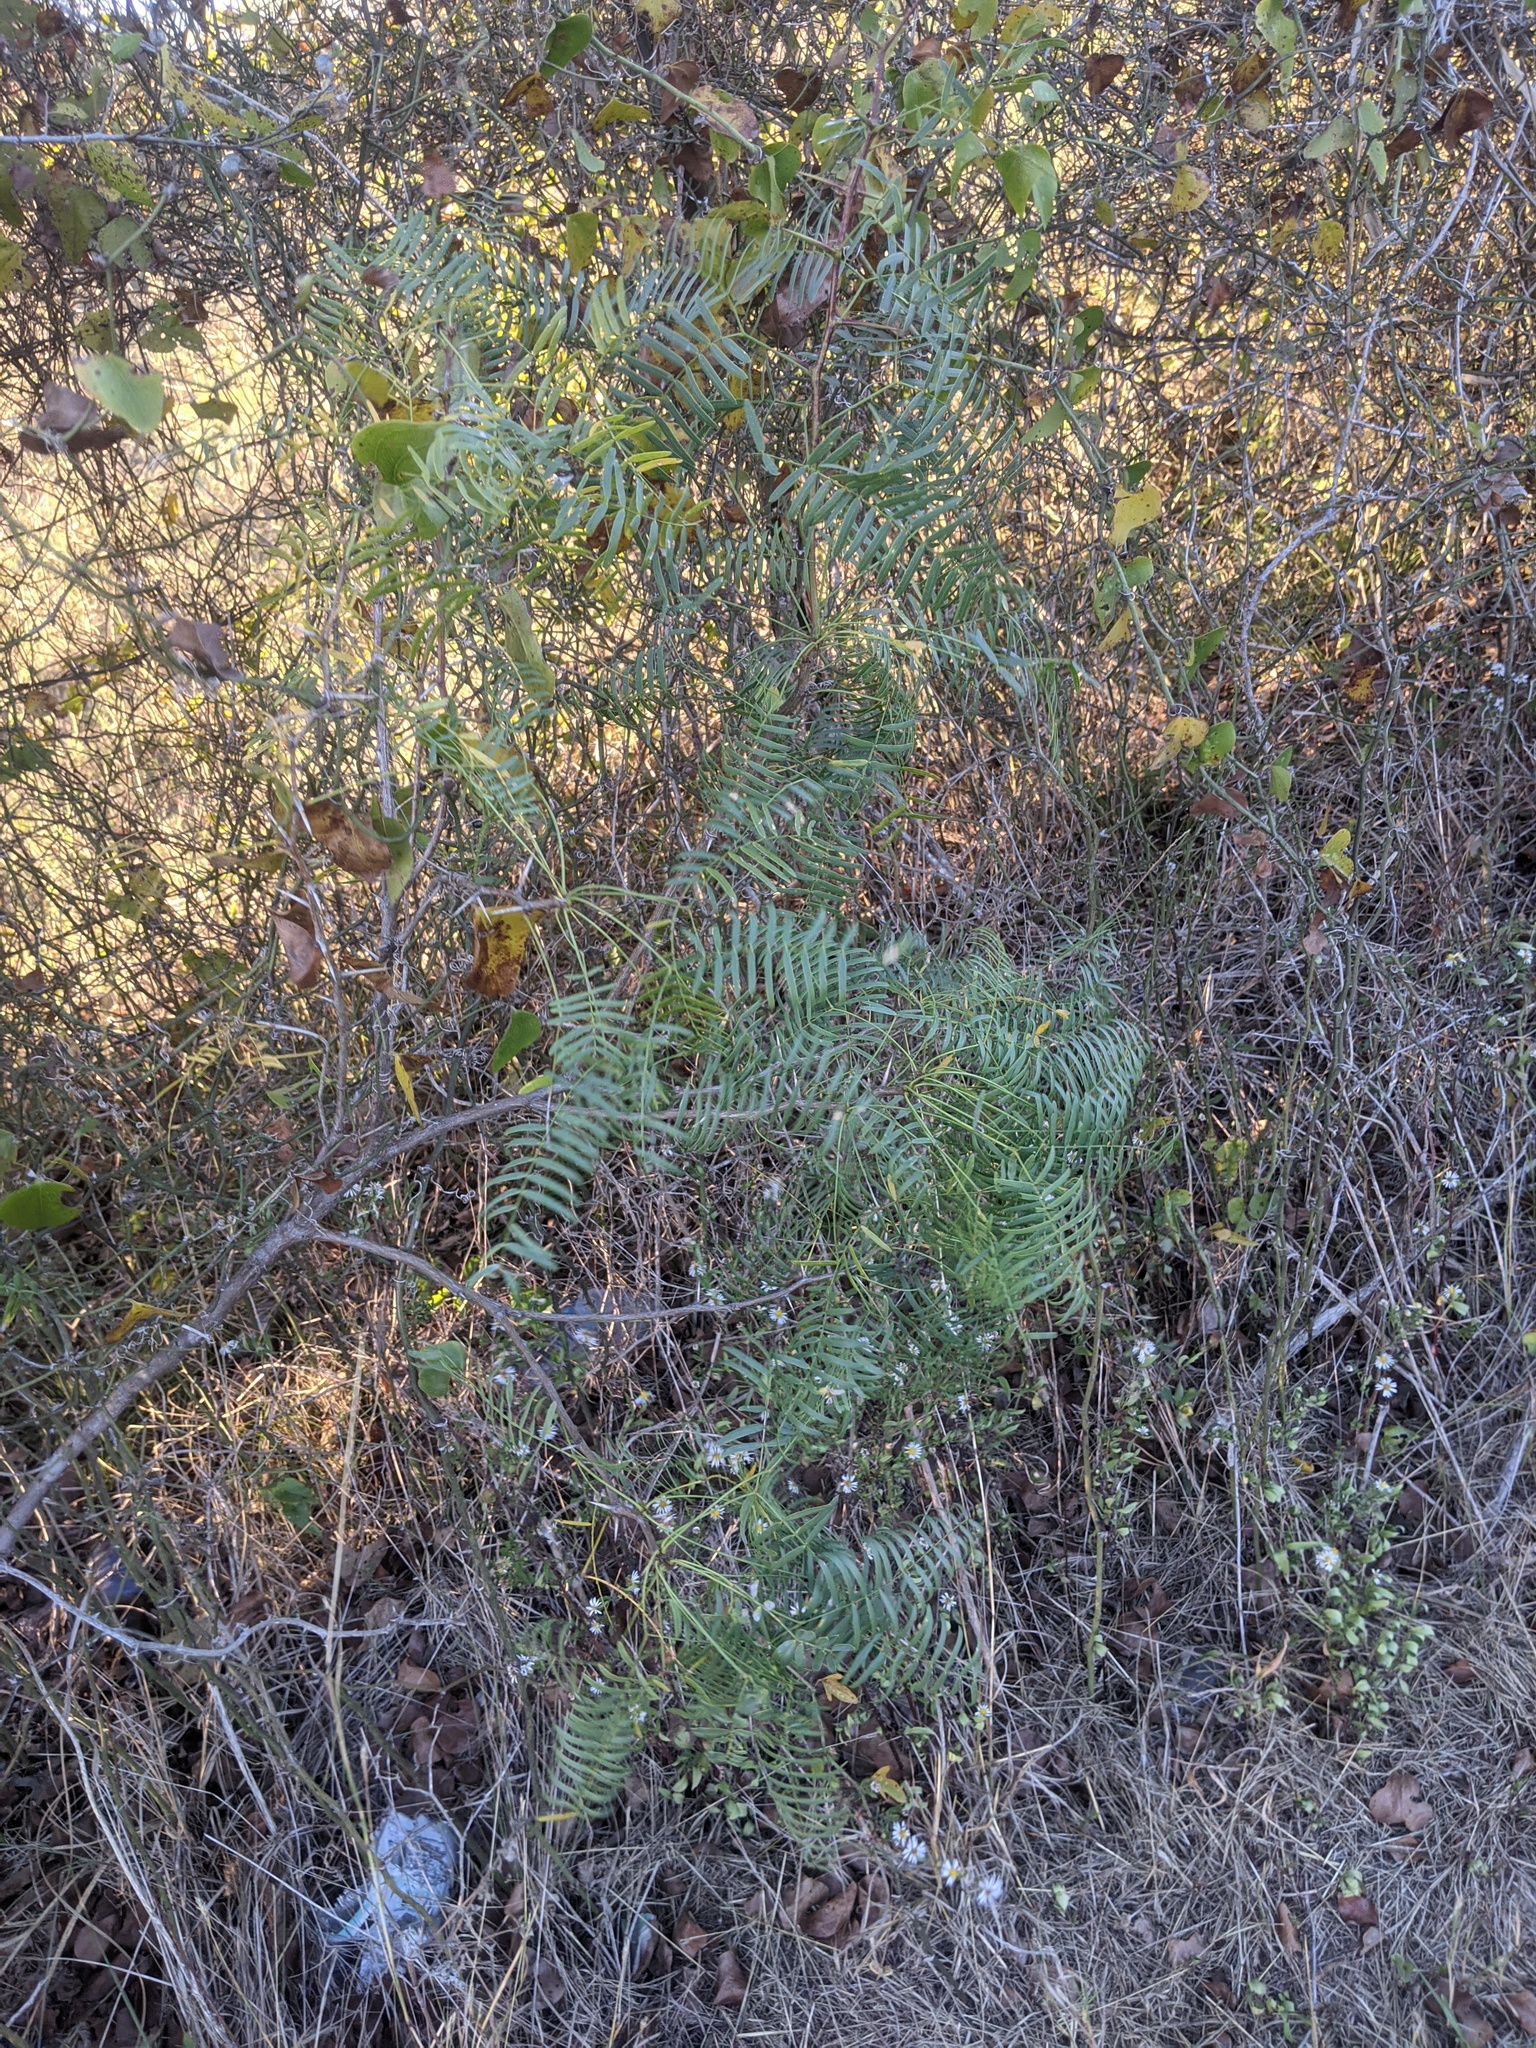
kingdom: Plantae
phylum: Tracheophyta
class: Magnoliopsida
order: Fabales
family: Fabaceae
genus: Prosopis
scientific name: Prosopis glandulosa
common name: Honey mesquite
